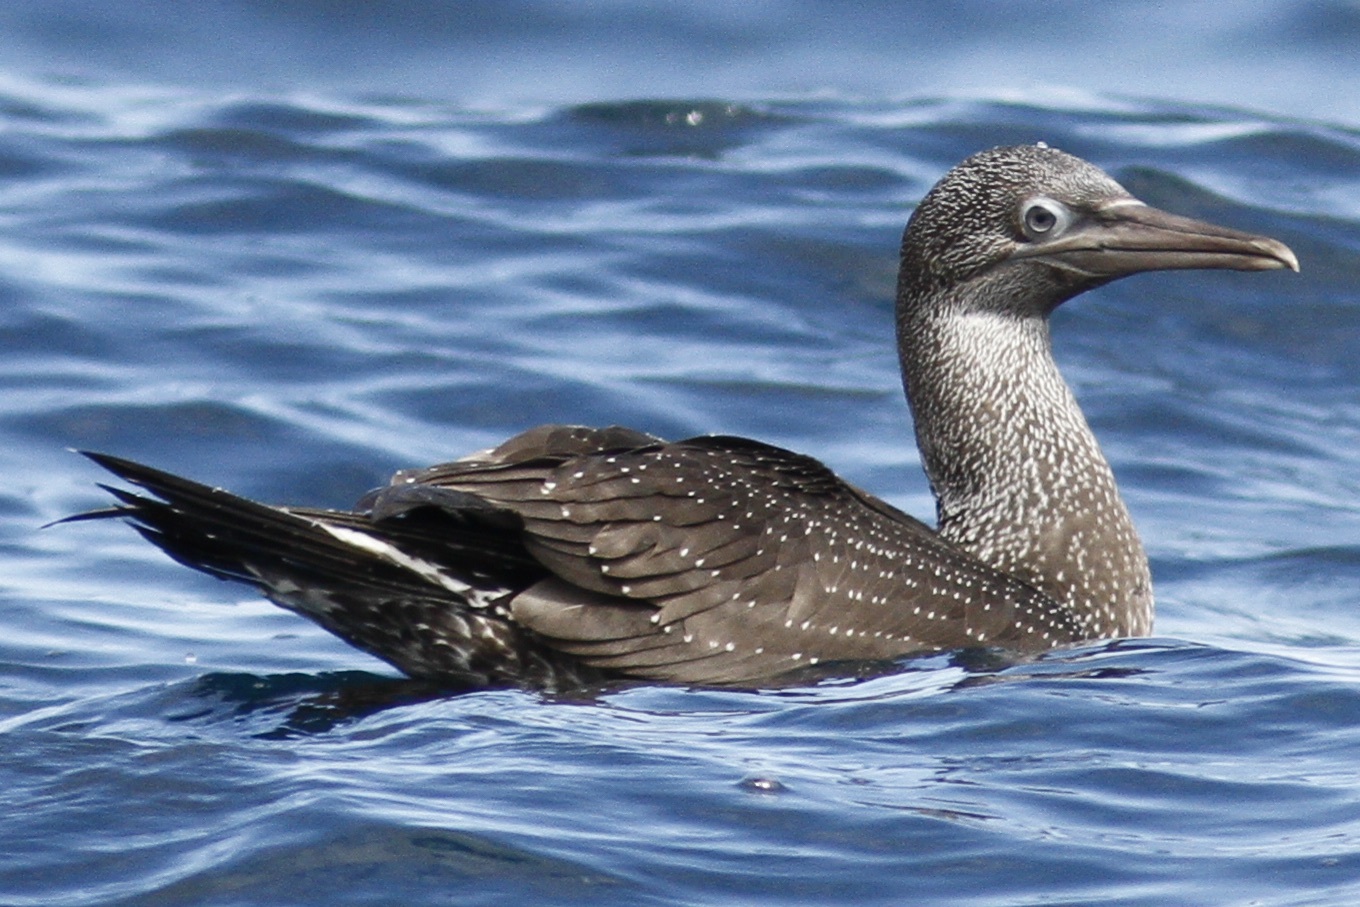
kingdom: Animalia
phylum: Chordata
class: Aves
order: Suliformes
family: Sulidae
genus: Morus
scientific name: Morus bassanus
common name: Northern gannet
